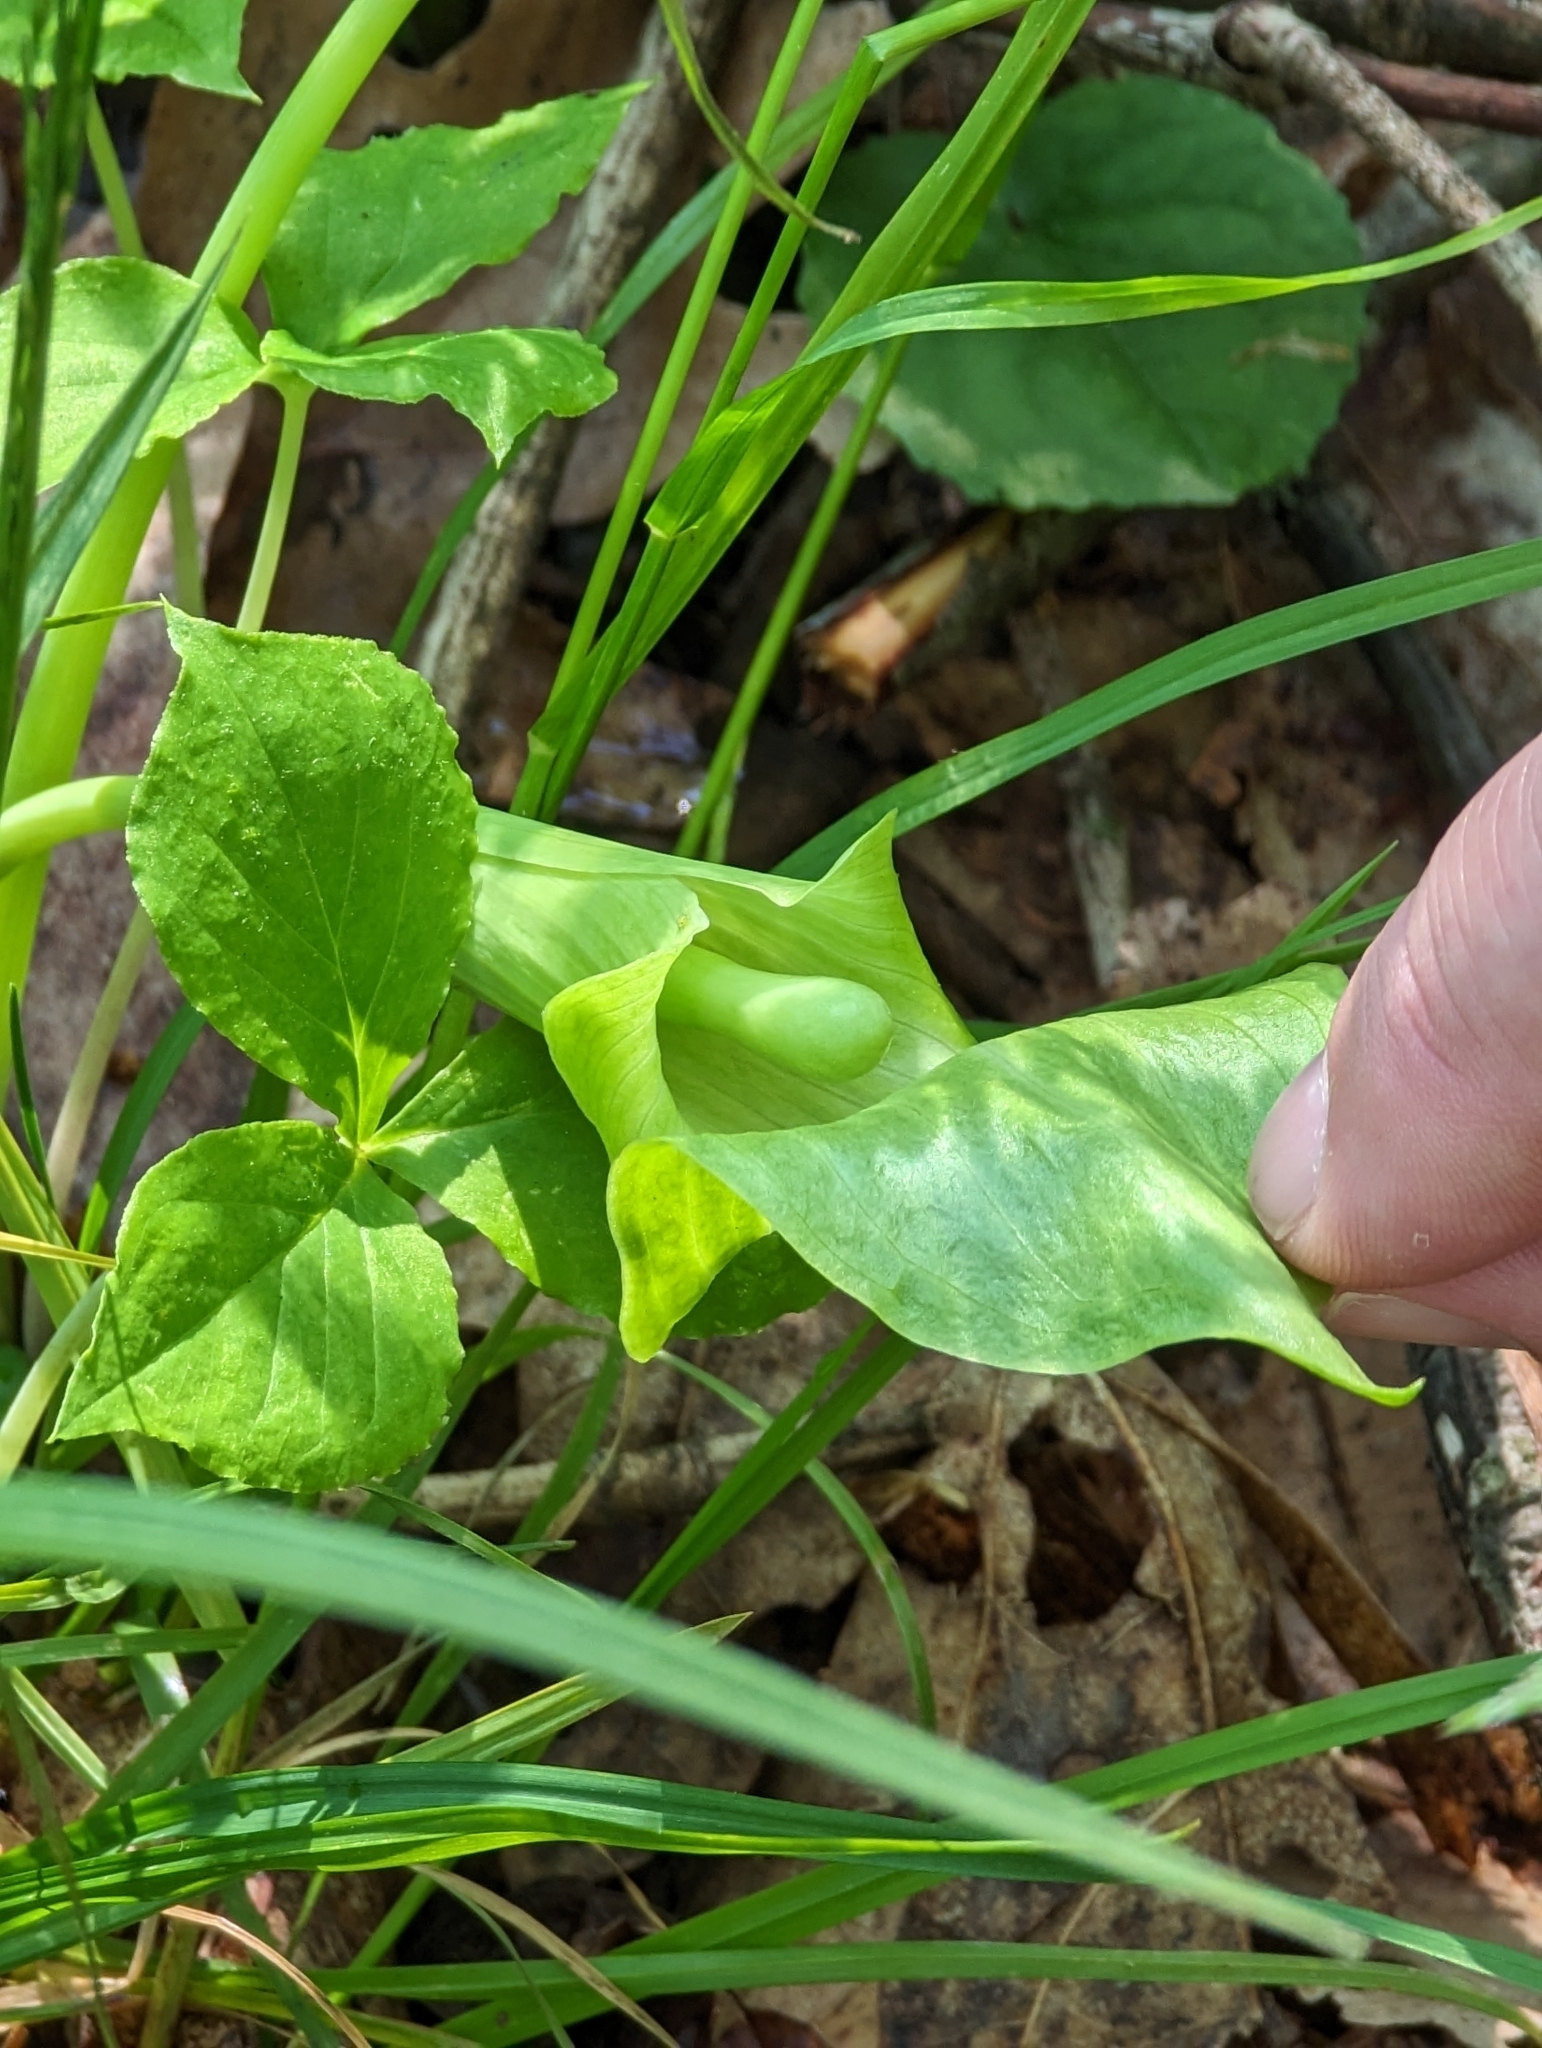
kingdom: Plantae
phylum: Tracheophyta
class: Liliopsida
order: Alismatales
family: Araceae
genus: Arisaema
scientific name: Arisaema triphyllum
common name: Jack-in-the-pulpit
